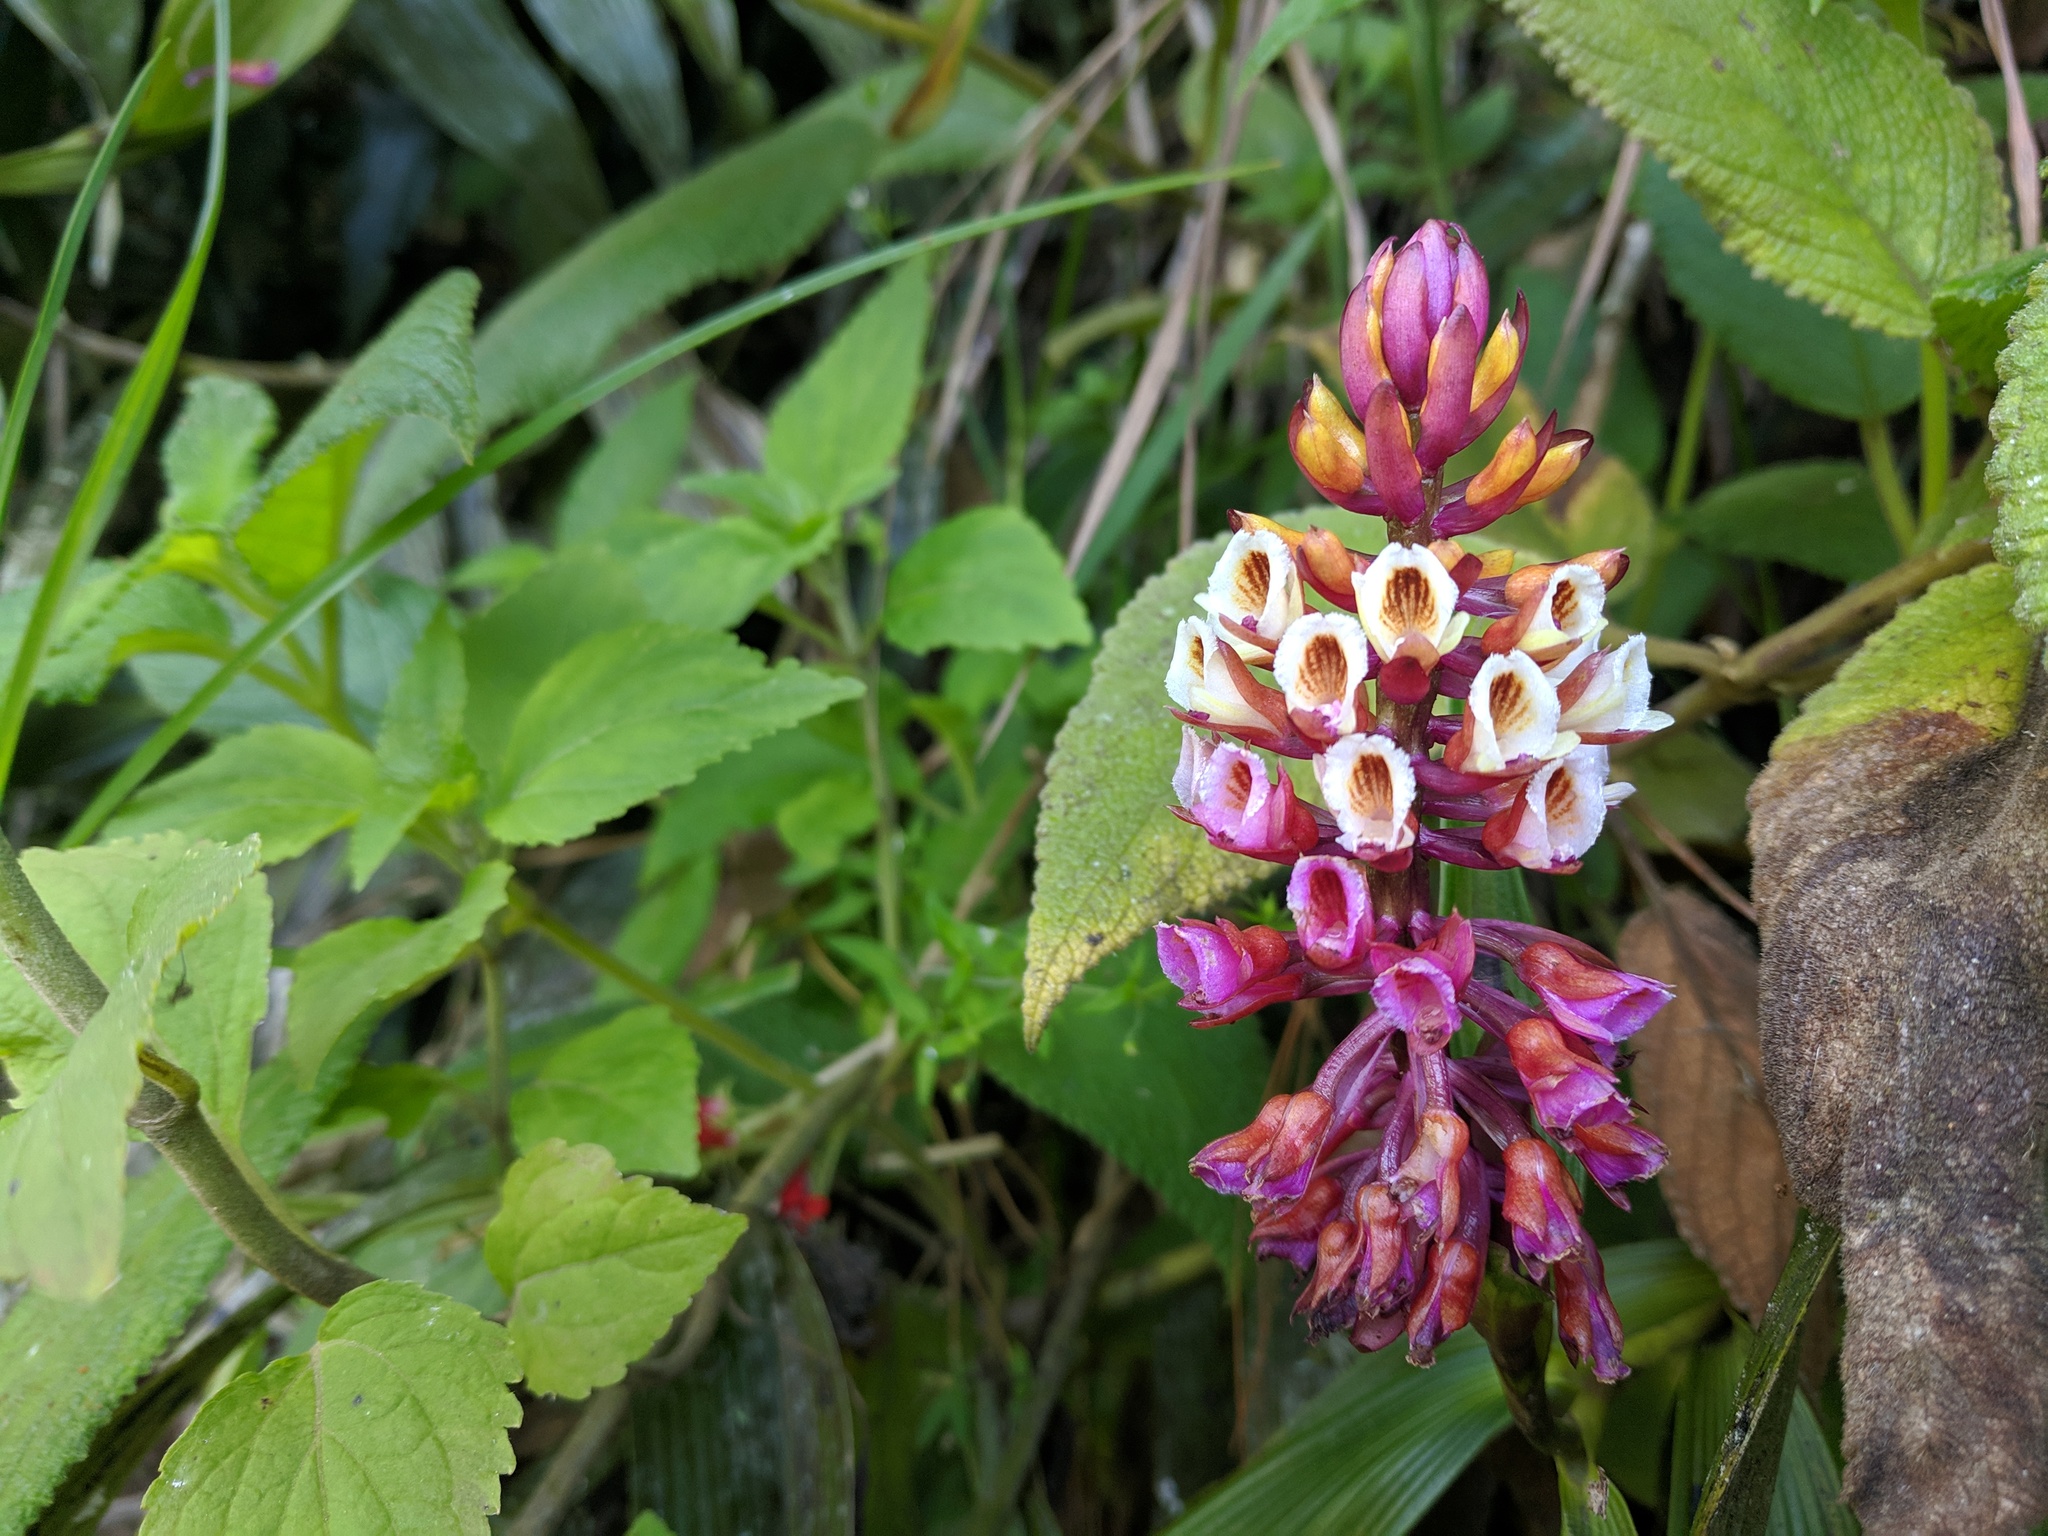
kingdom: Plantae
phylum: Tracheophyta
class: Liliopsida
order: Asparagales
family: Orchidaceae
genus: Elleanthus
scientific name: Elleanthus robustus
